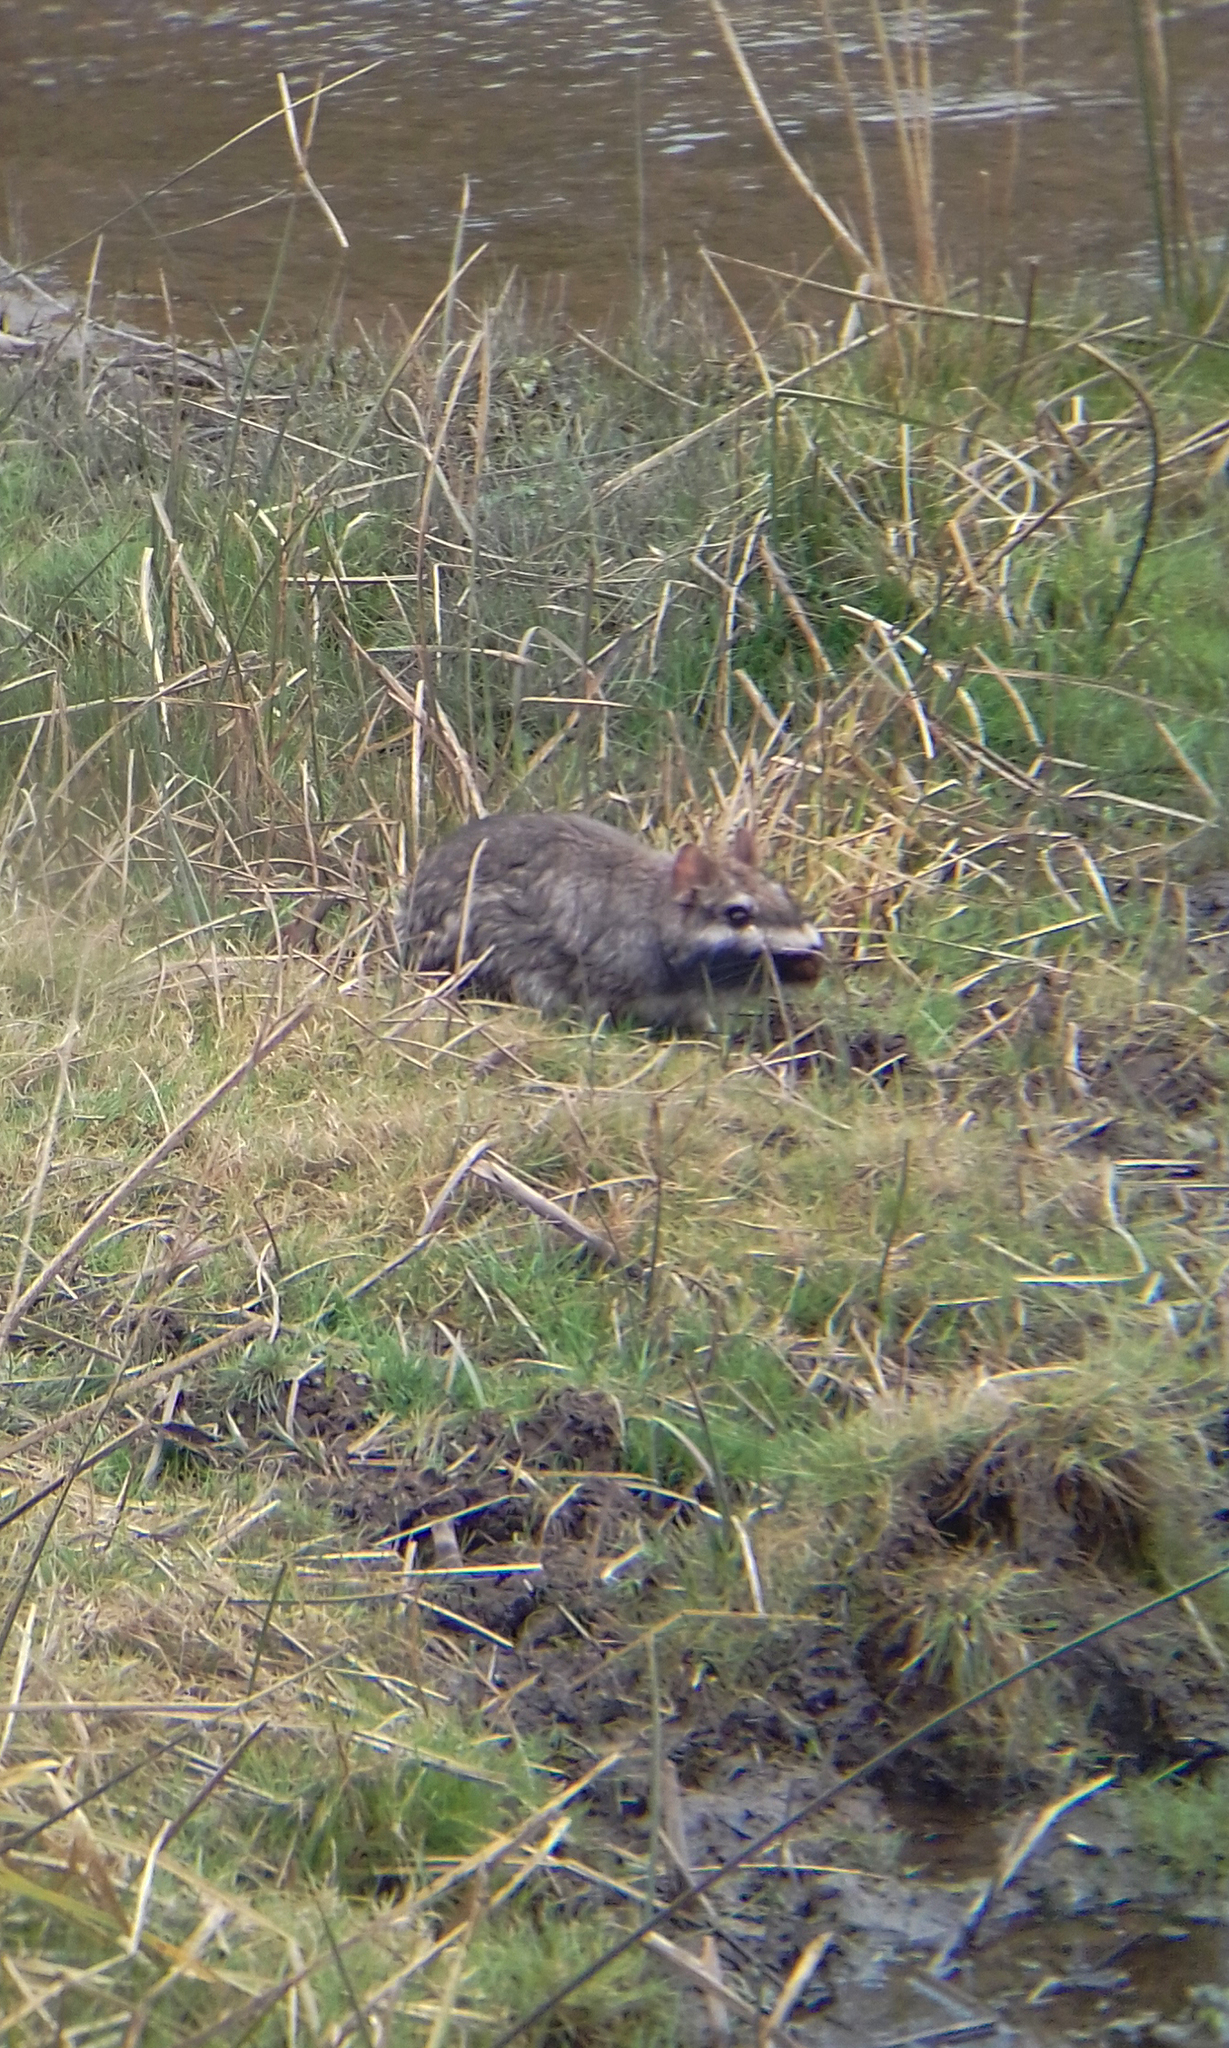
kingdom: Animalia
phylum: Chordata
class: Mammalia
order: Rodentia
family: Chinchillidae
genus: Lagostomus
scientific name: Lagostomus maximus
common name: Plains viscacha
